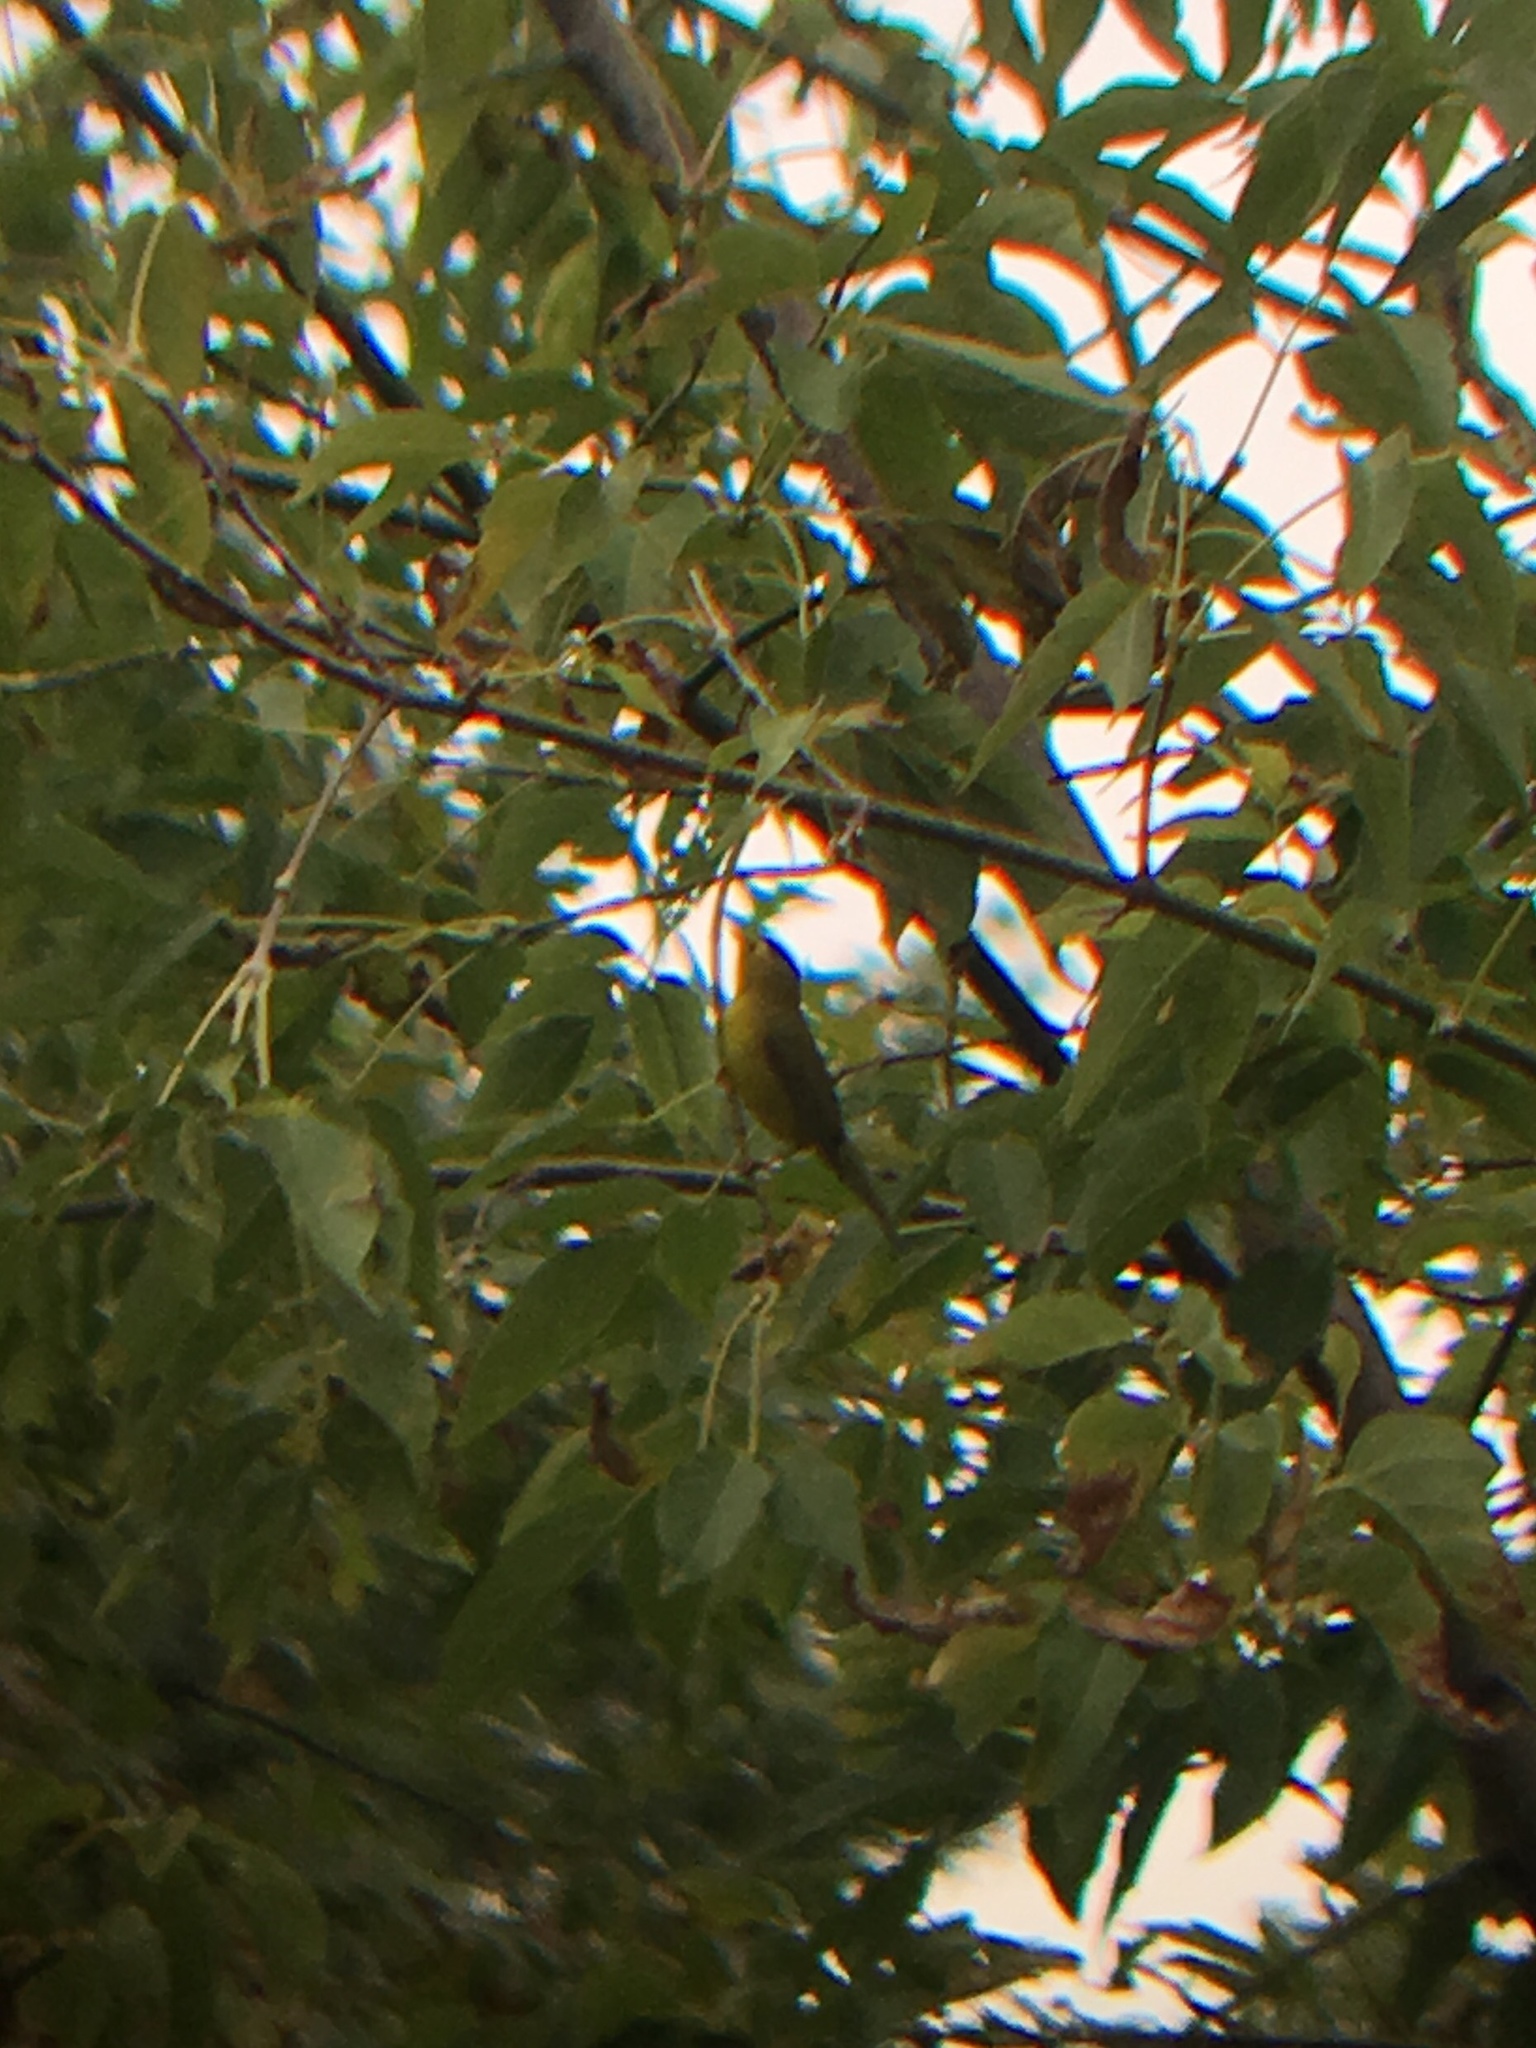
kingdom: Animalia
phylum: Chordata
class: Aves
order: Passeriformes
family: Parulidae
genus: Cardellina
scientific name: Cardellina pusilla
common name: Wilson's warbler
